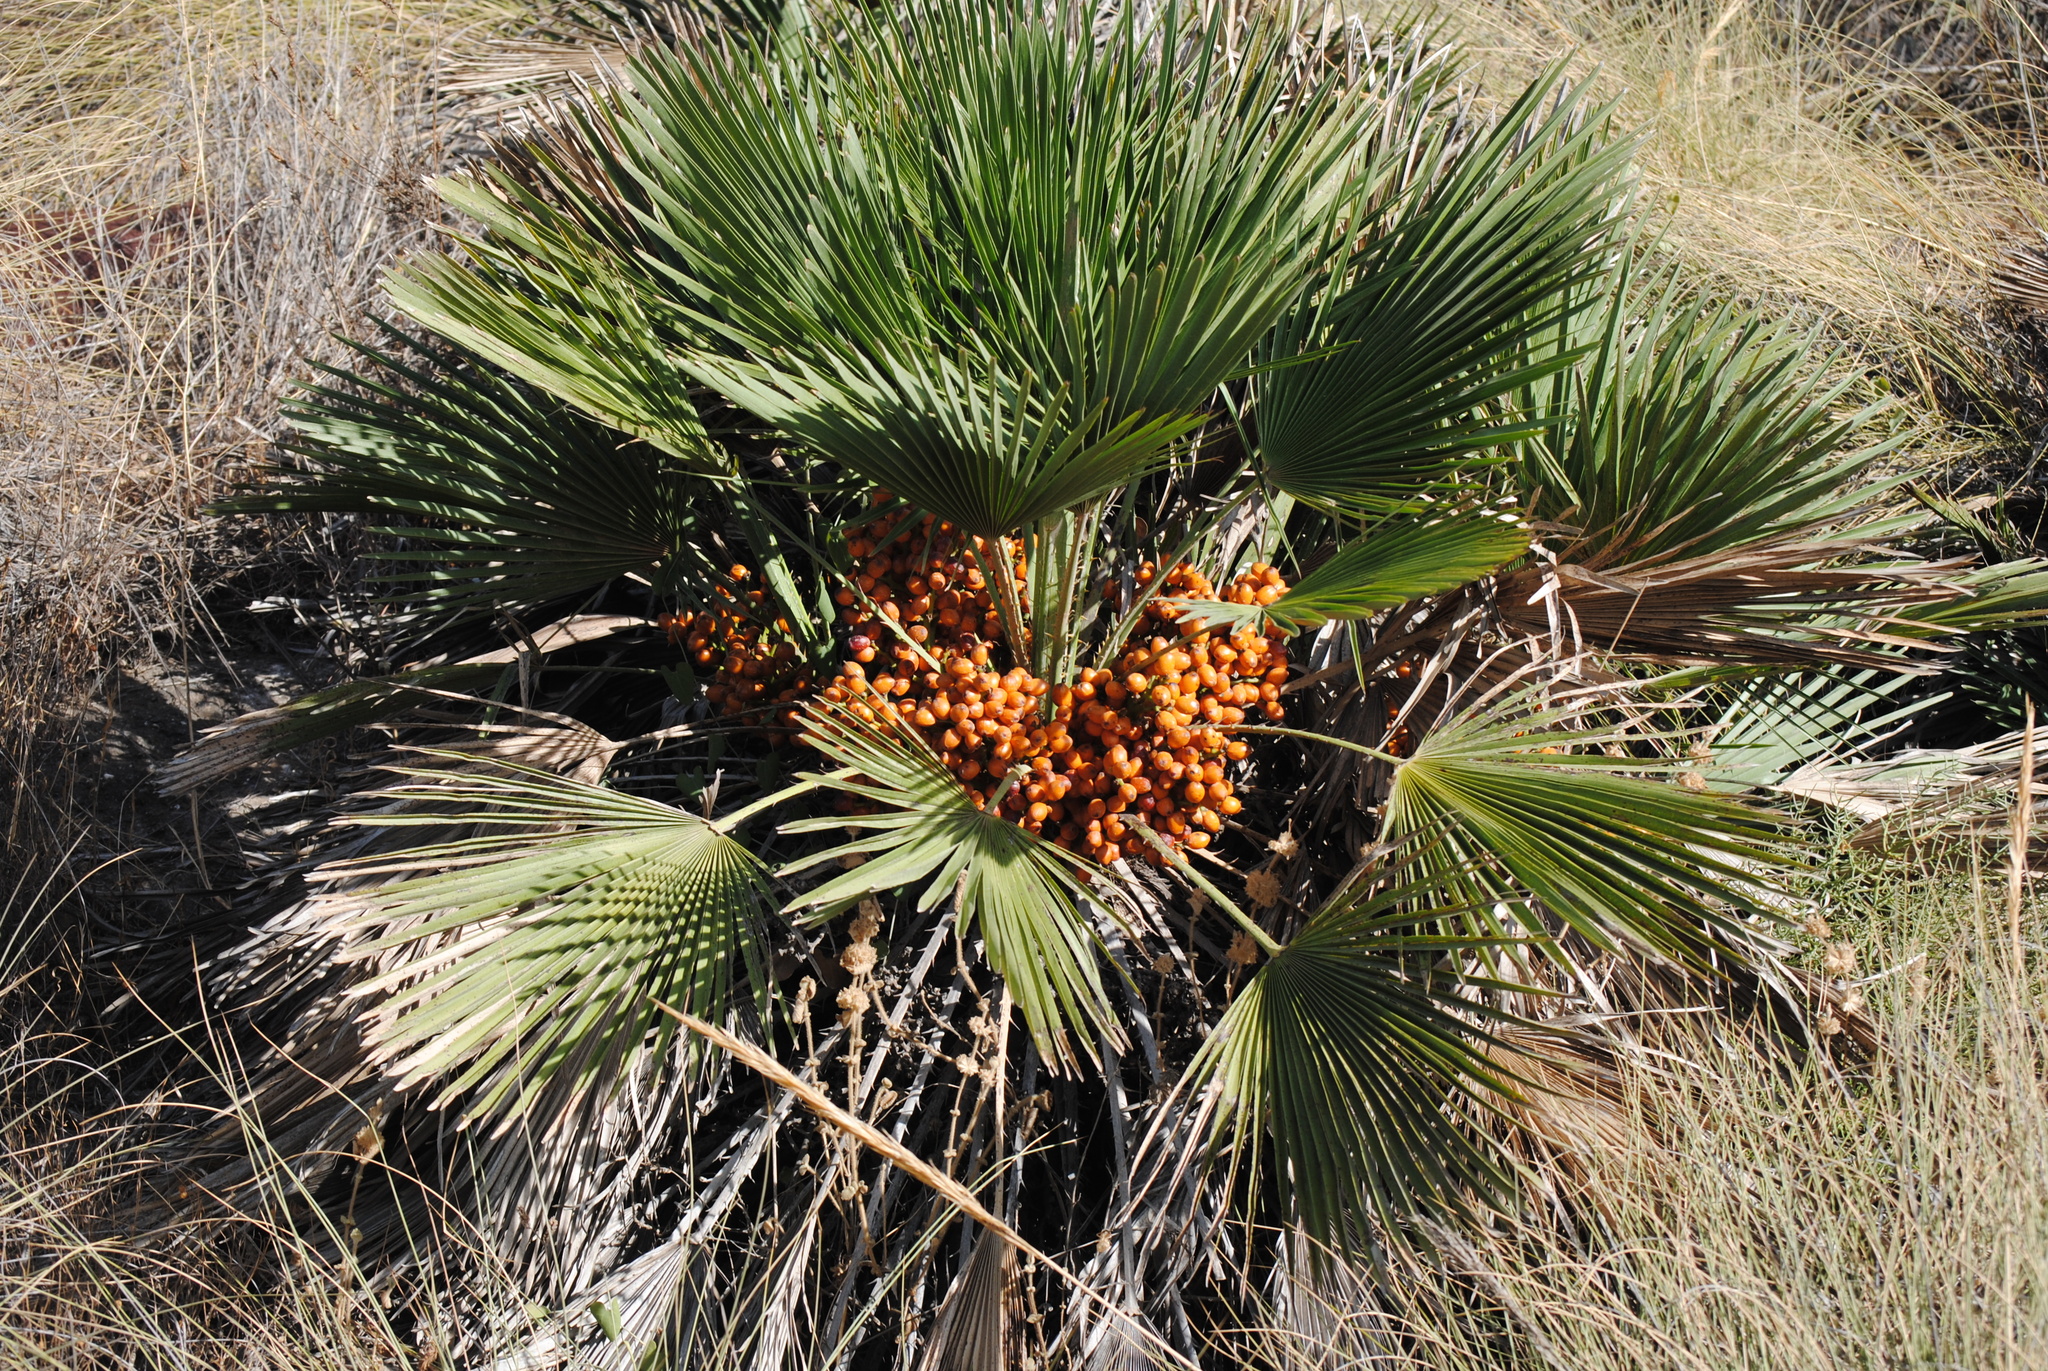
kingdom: Plantae
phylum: Tracheophyta
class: Liliopsida
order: Arecales
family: Arecaceae
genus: Chamaerops
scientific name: Chamaerops humilis
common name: Dwarf fan palm
